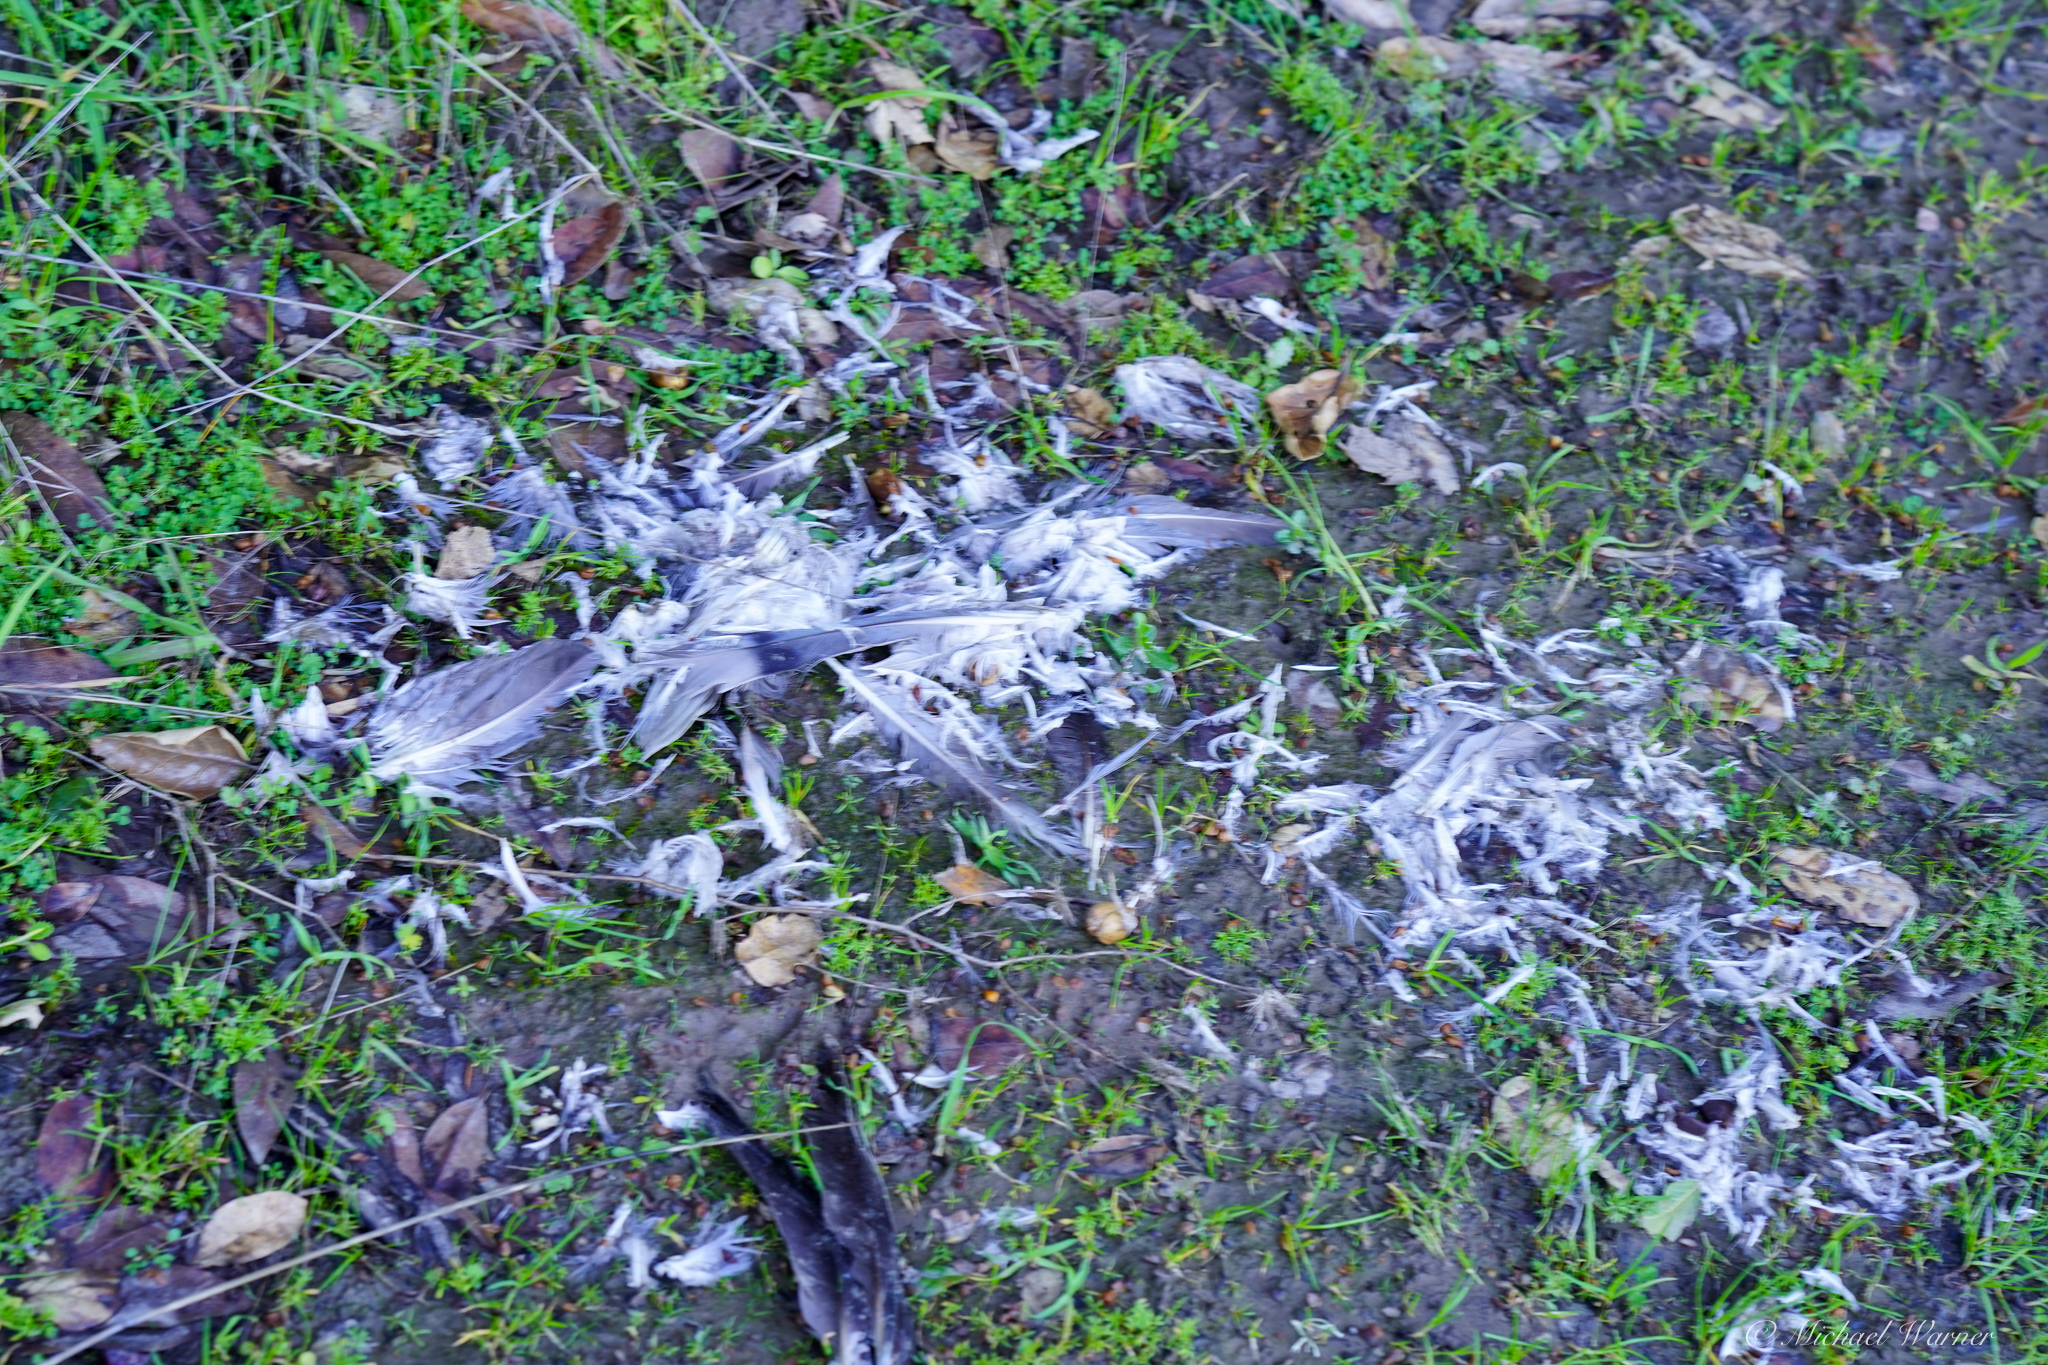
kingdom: Animalia
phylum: Chordata
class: Aves
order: Columbiformes
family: Columbidae
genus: Patagioenas
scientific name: Patagioenas fasciata
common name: Band-tailed pigeon
